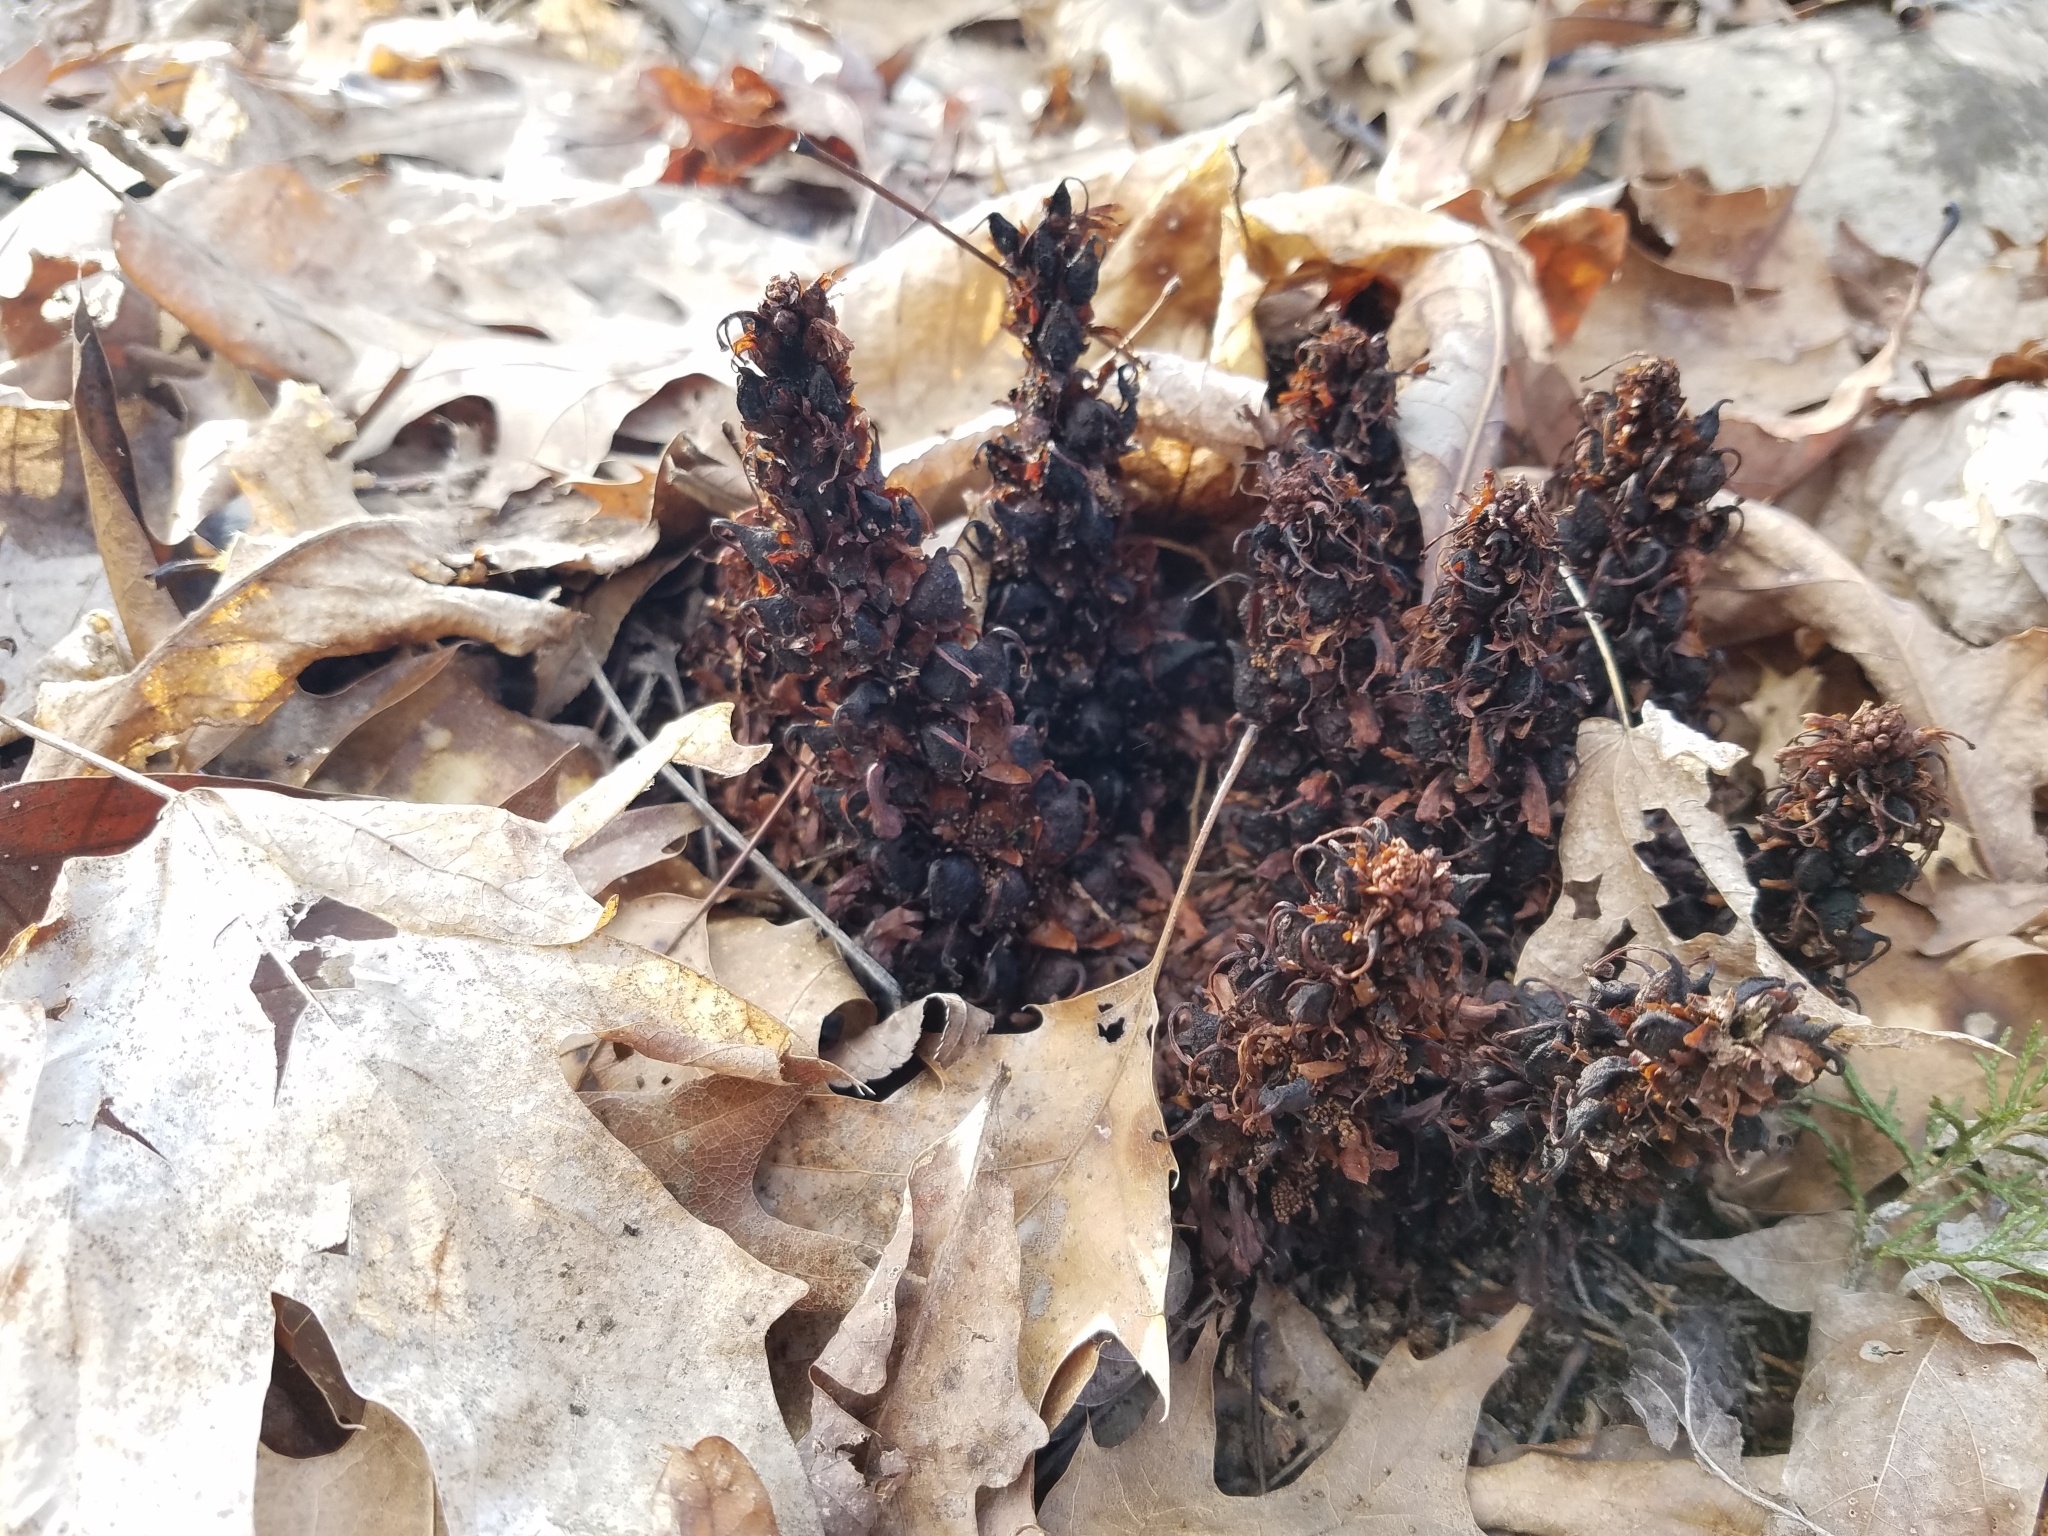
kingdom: Plantae
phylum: Tracheophyta
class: Magnoliopsida
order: Lamiales
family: Orobanchaceae
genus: Conopholis
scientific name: Conopholis americana
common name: American cancer-root
